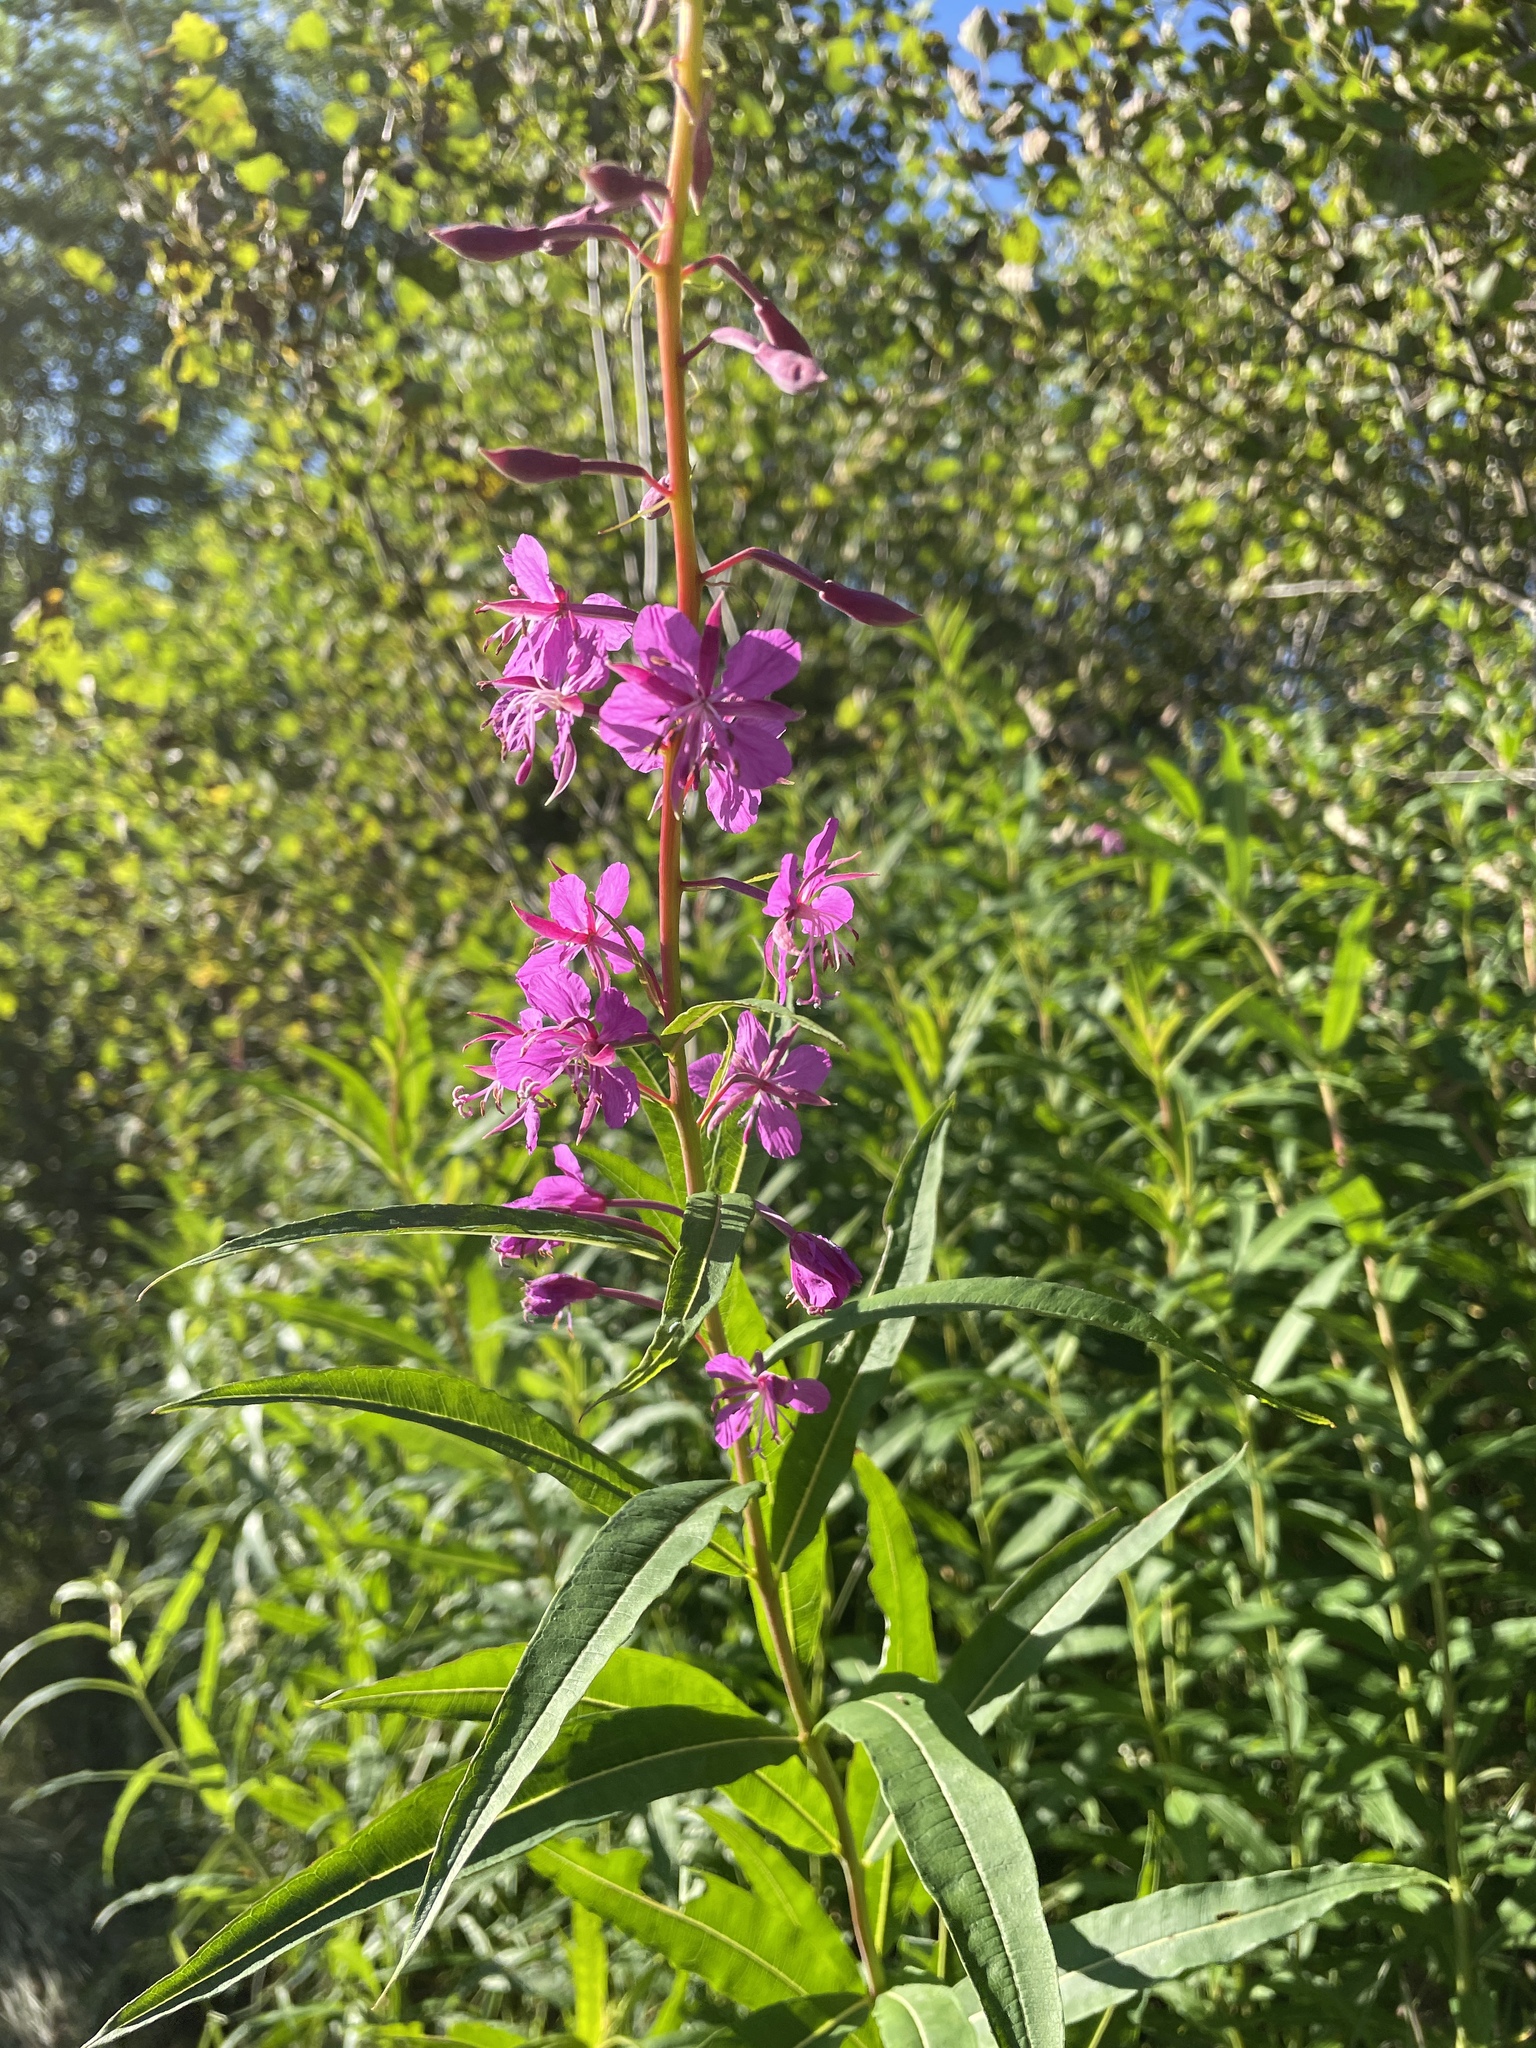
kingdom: Plantae
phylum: Tracheophyta
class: Magnoliopsida
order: Myrtales
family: Onagraceae
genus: Chamaenerion
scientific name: Chamaenerion angustifolium
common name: Fireweed
